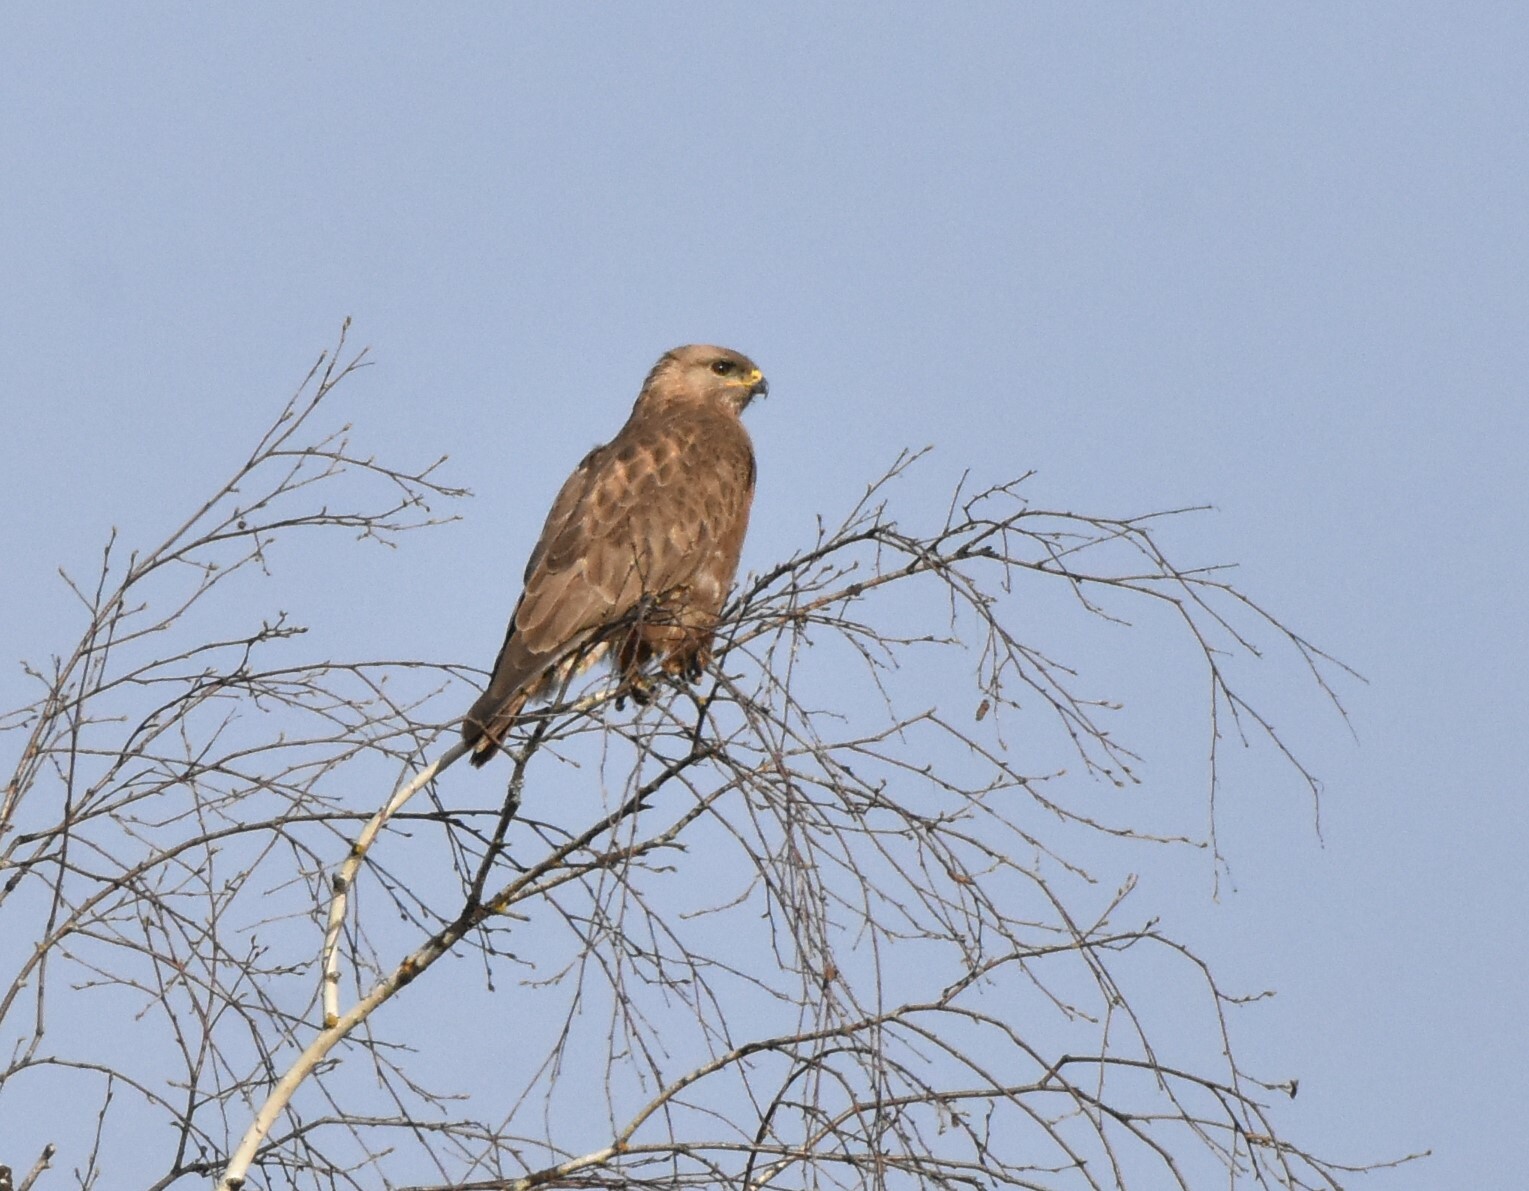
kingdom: Animalia
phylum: Chordata
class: Aves
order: Accipitriformes
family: Accipitridae
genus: Buteo
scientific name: Buteo buteo
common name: Common buzzard
